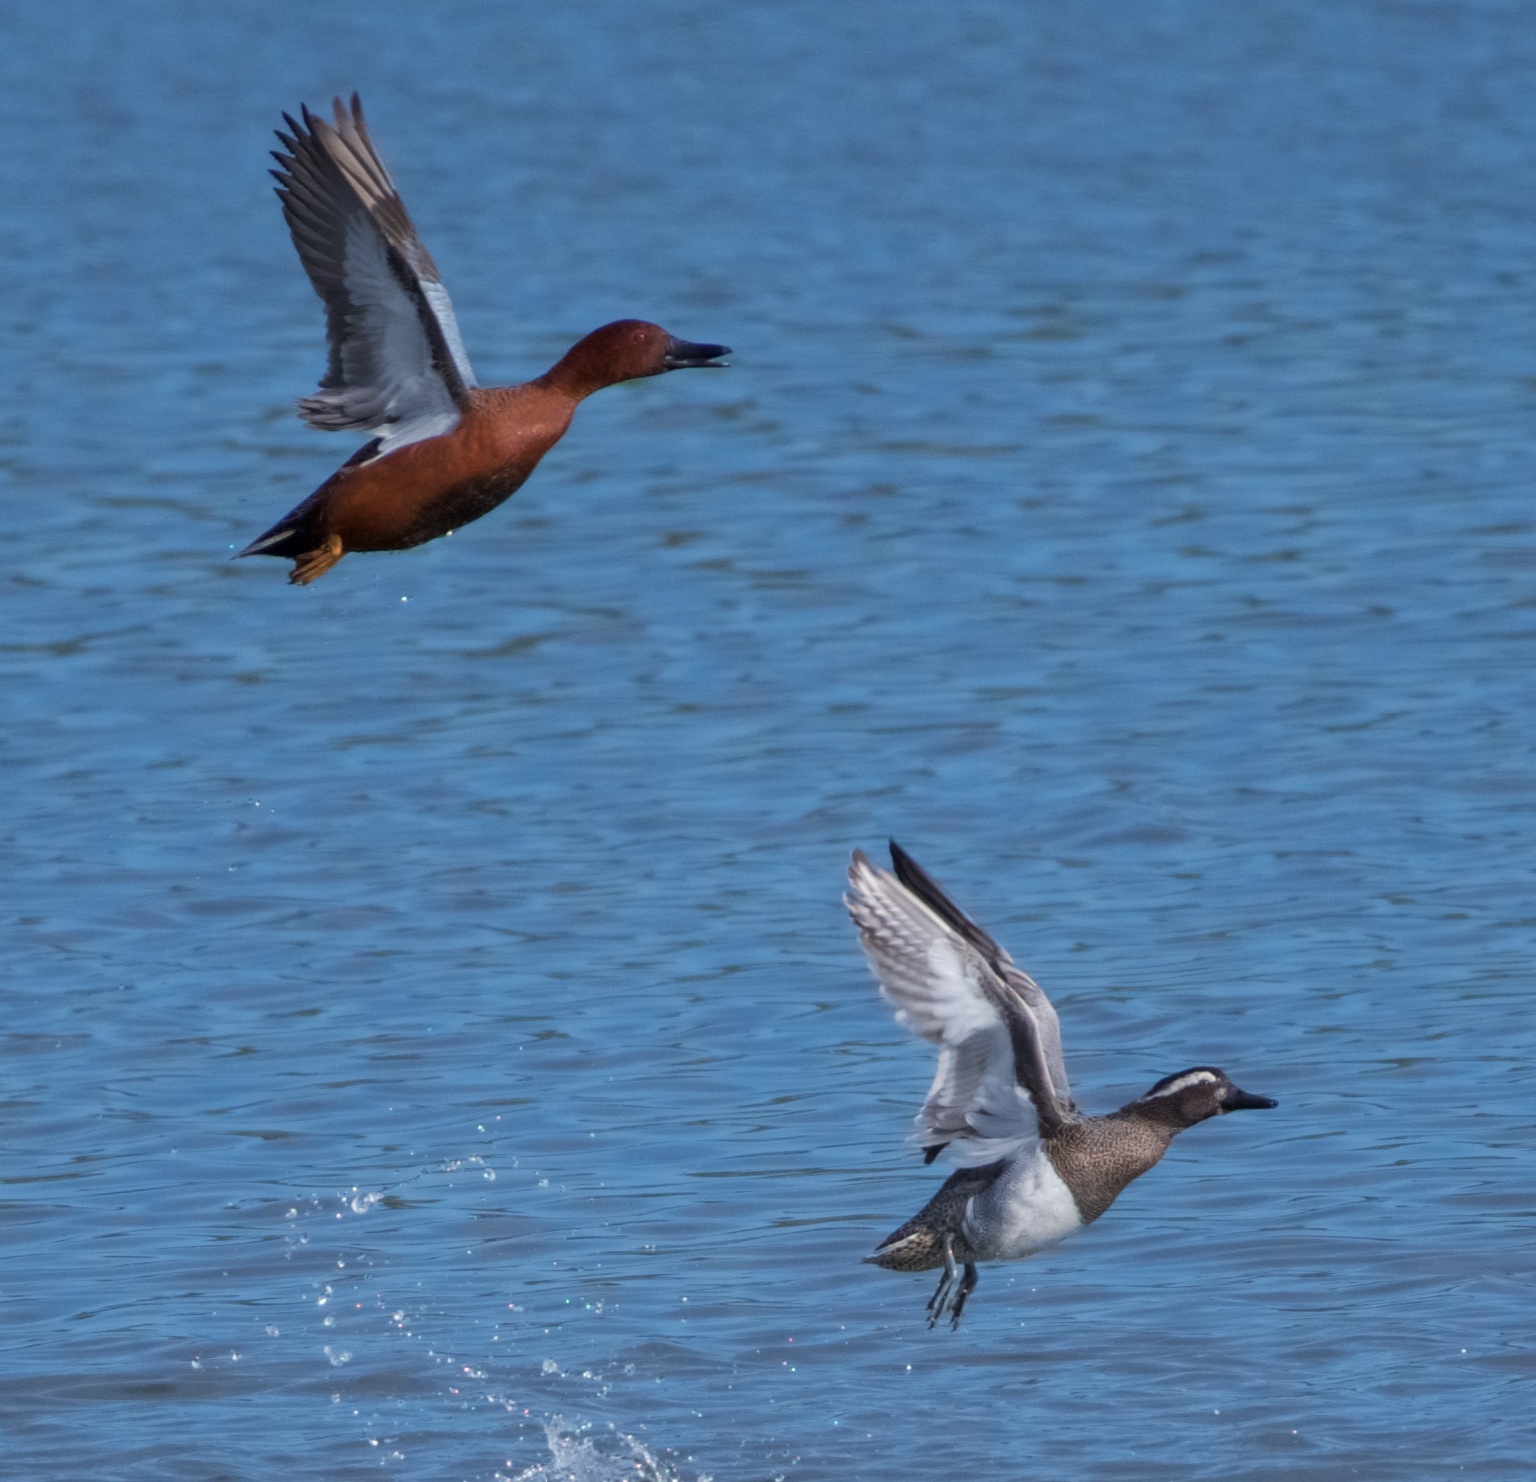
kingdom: Animalia
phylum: Chordata
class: Aves
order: Anseriformes
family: Anatidae
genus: Spatula
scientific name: Spatula querquedula
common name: Garganey
